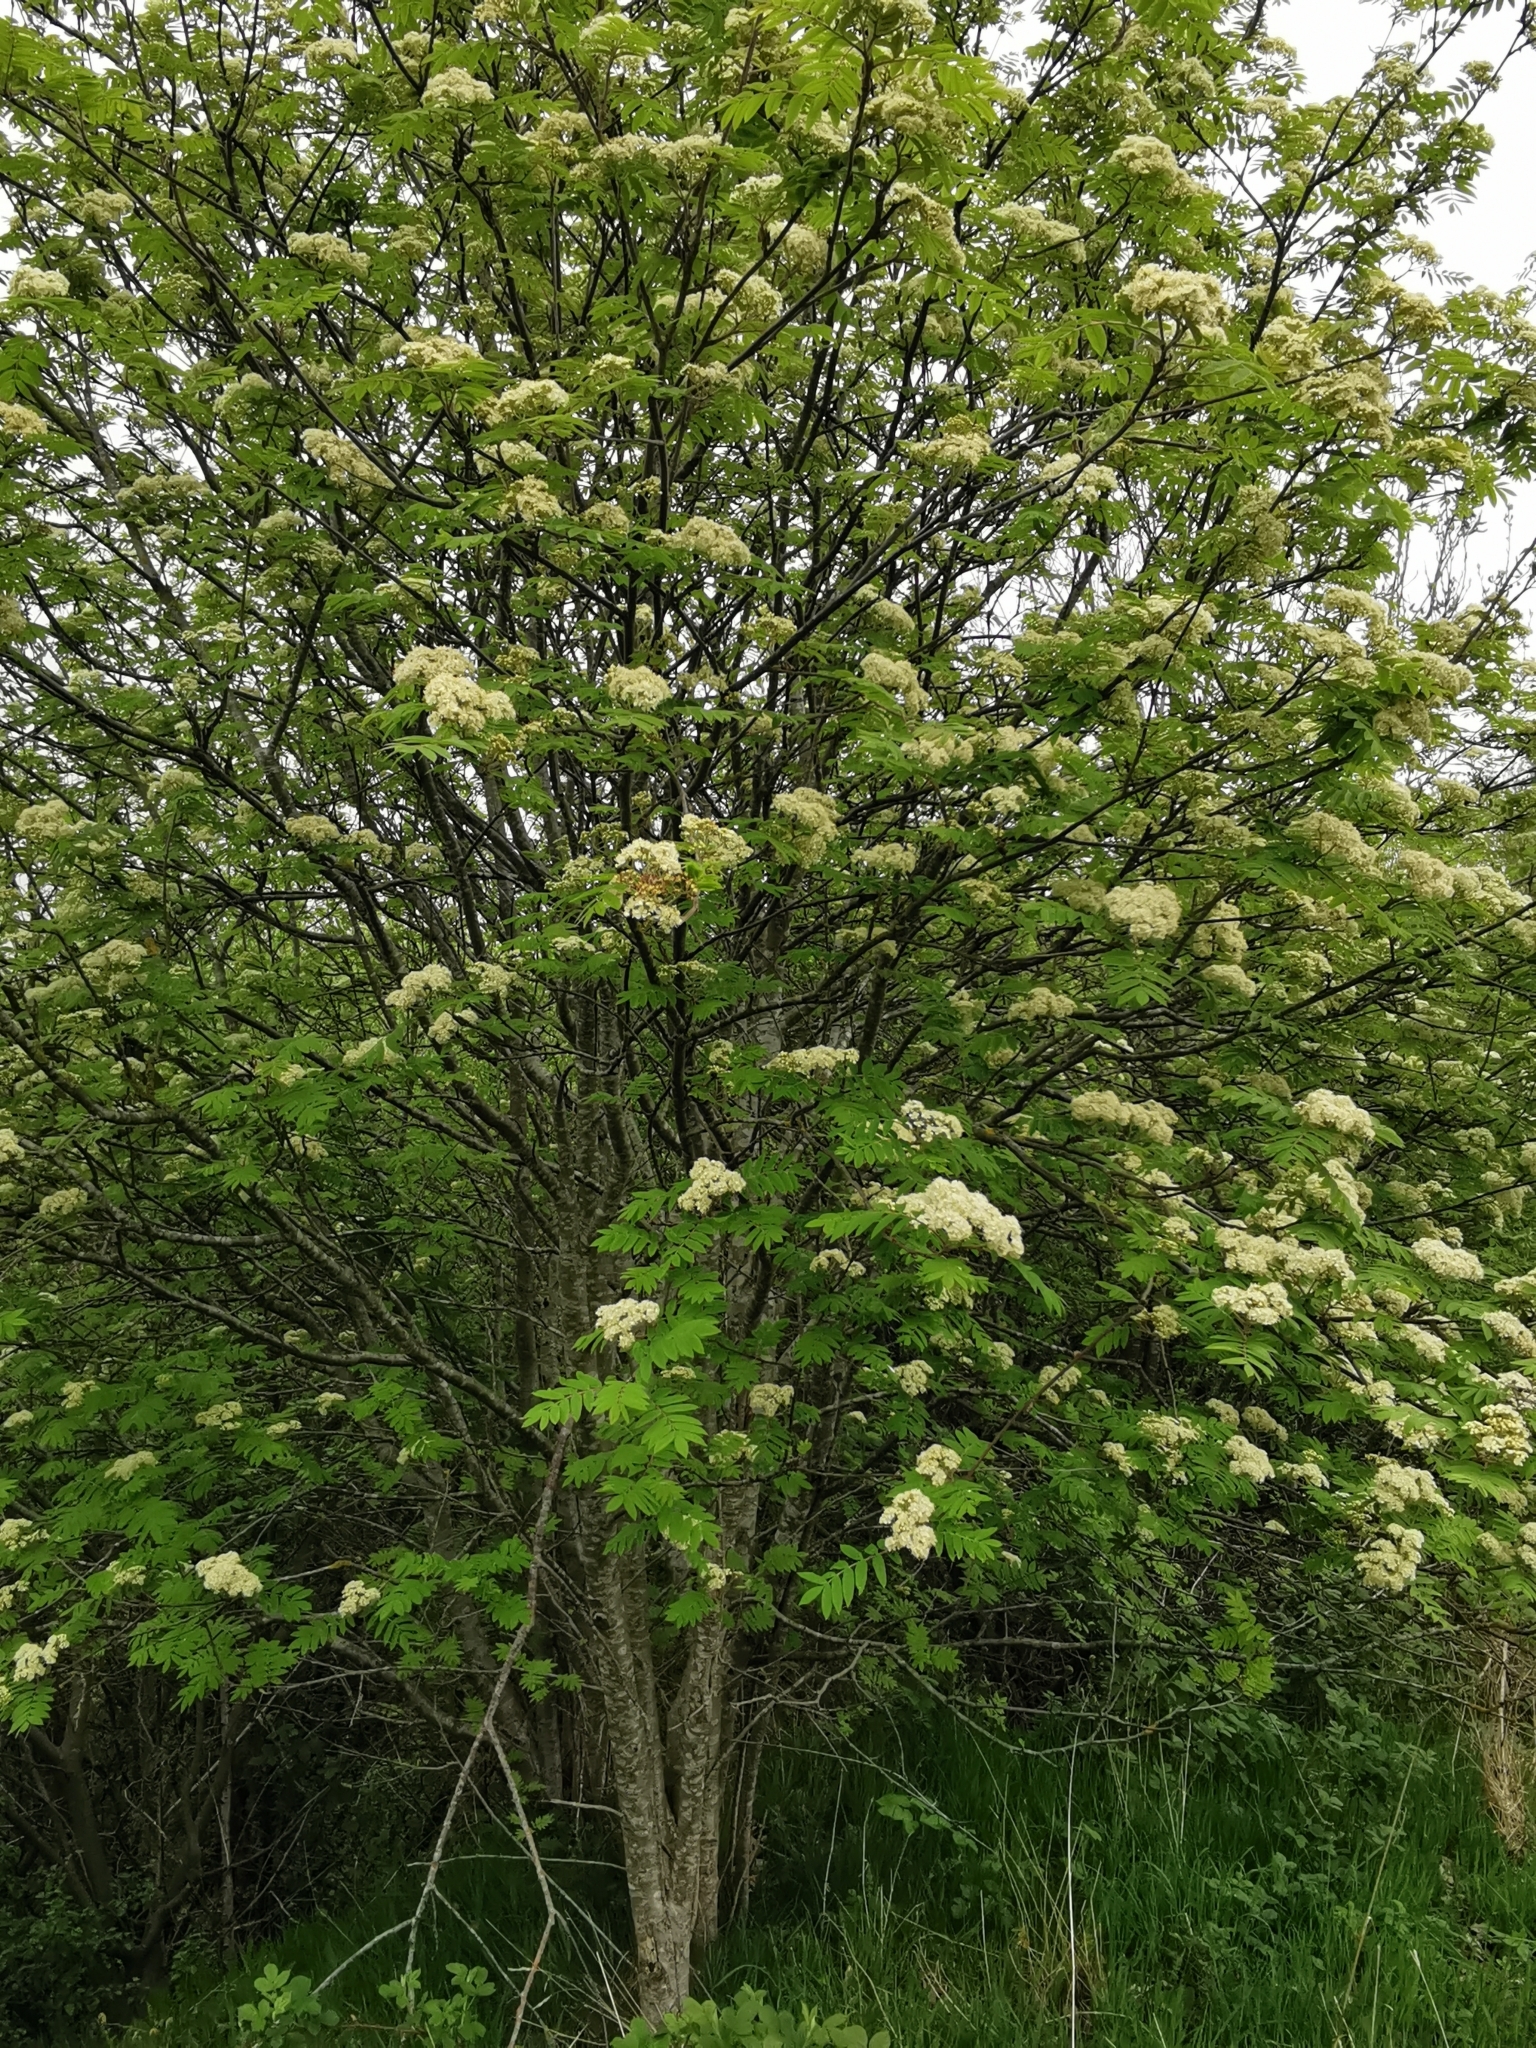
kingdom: Plantae
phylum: Tracheophyta
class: Magnoliopsida
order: Rosales
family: Rosaceae
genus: Sorbus
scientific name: Sorbus aucuparia
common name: Rowan
